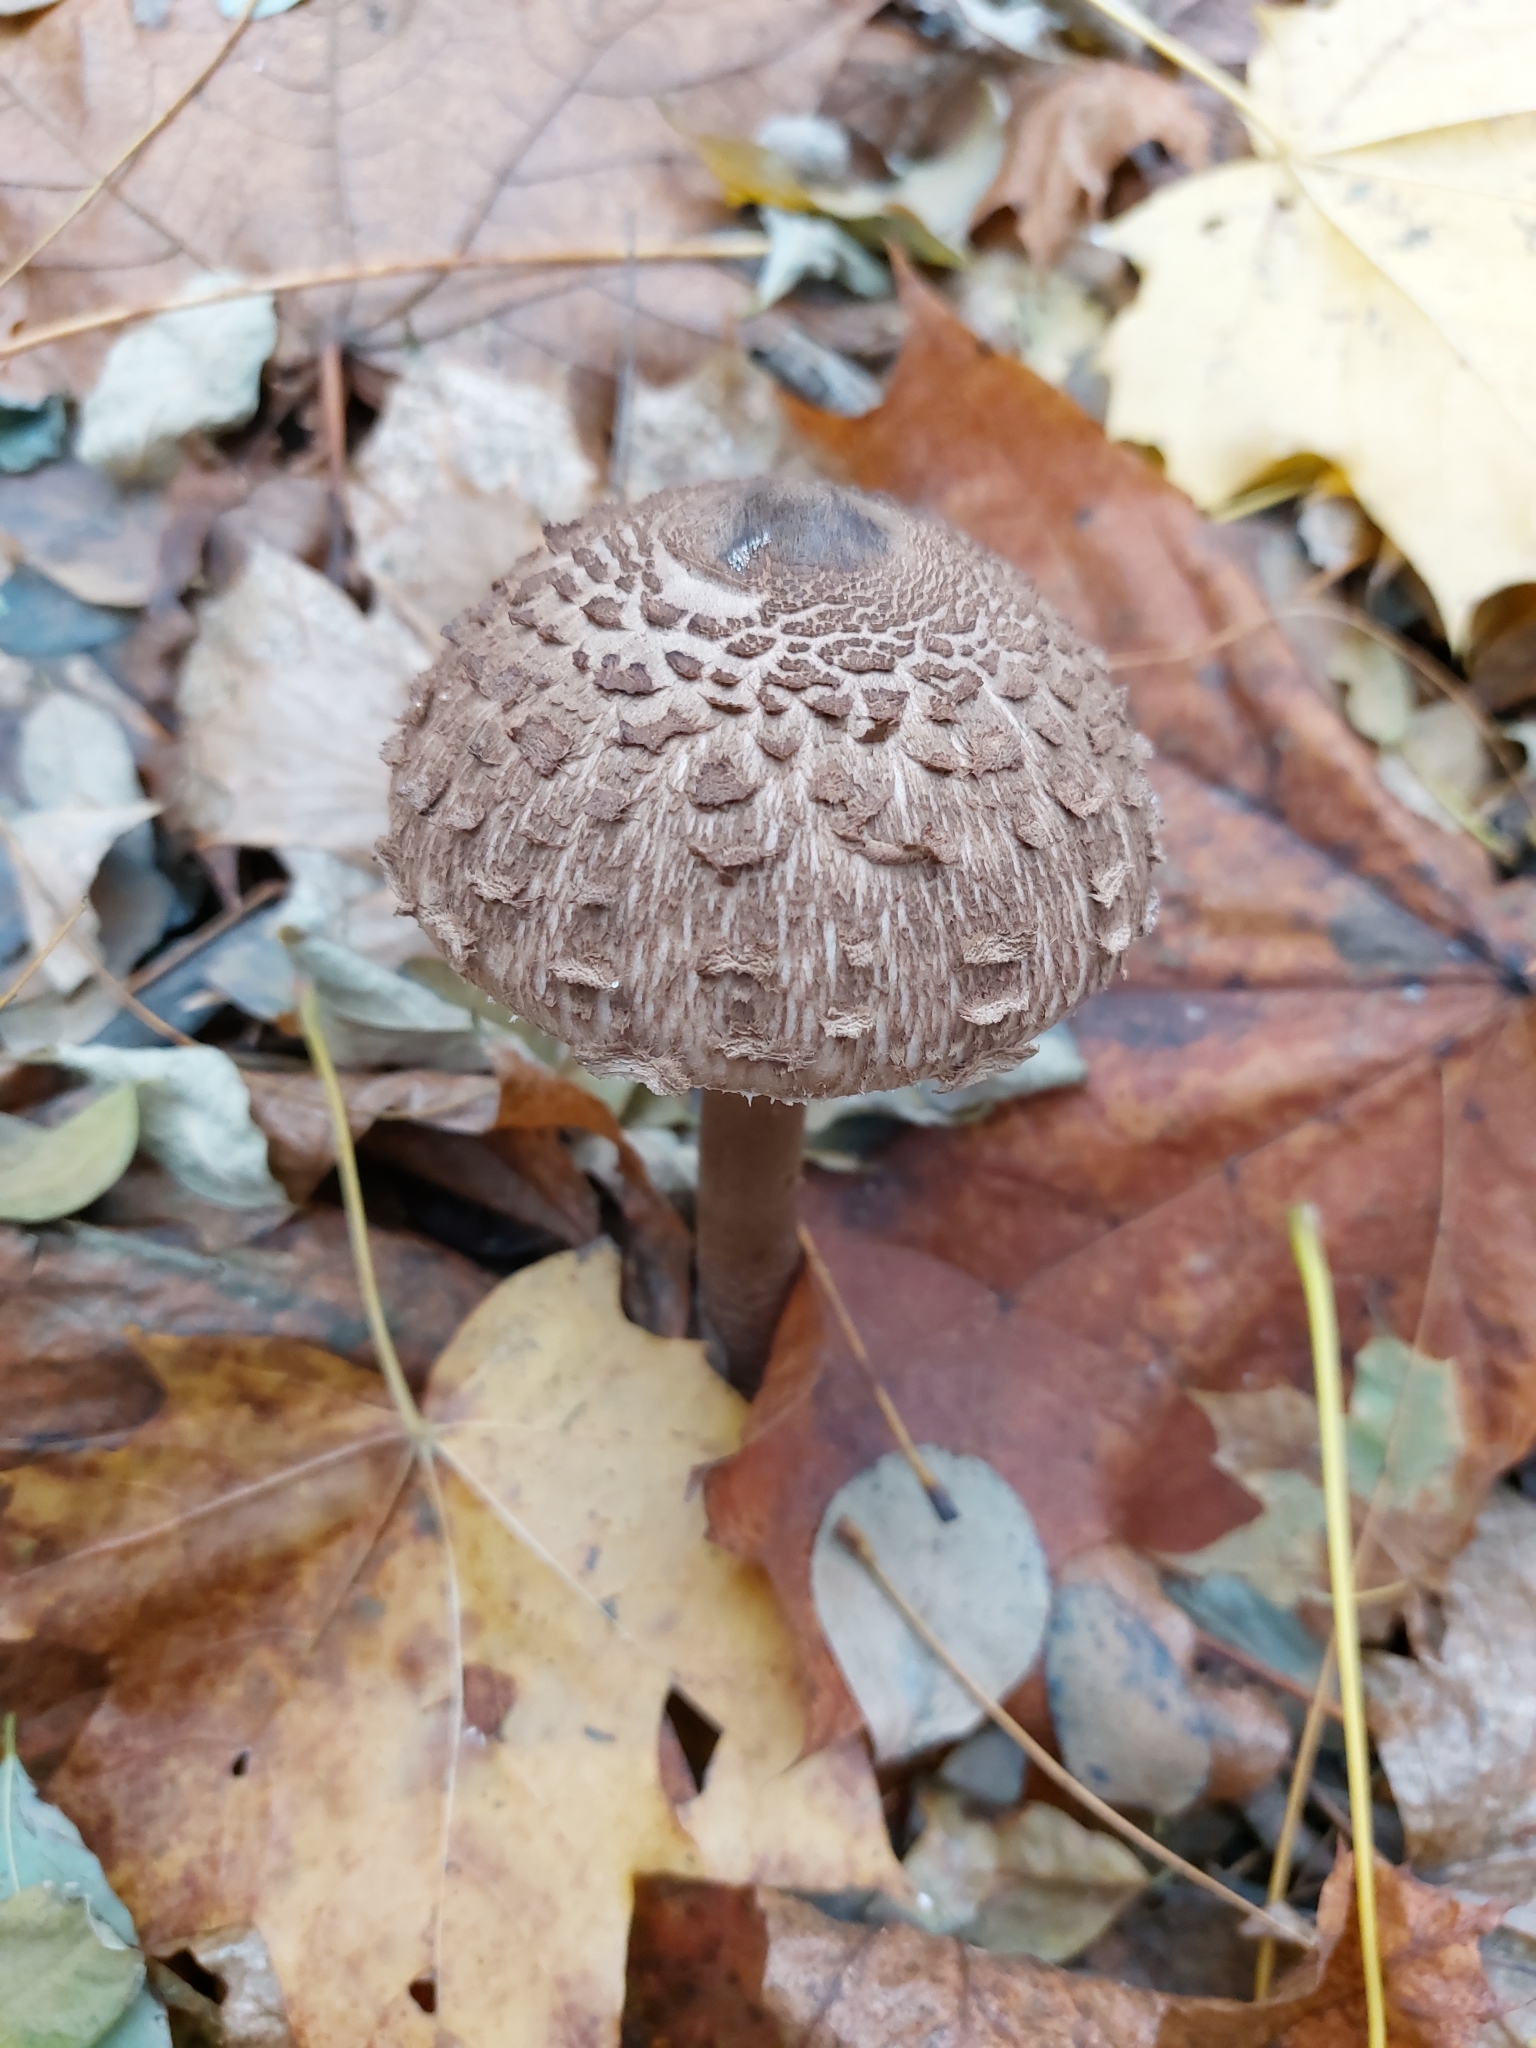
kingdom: Fungi
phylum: Basidiomycota
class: Agaricomycetes
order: Agaricales
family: Agaricaceae
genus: Macrolepiota
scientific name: Macrolepiota procera
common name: Parasol
